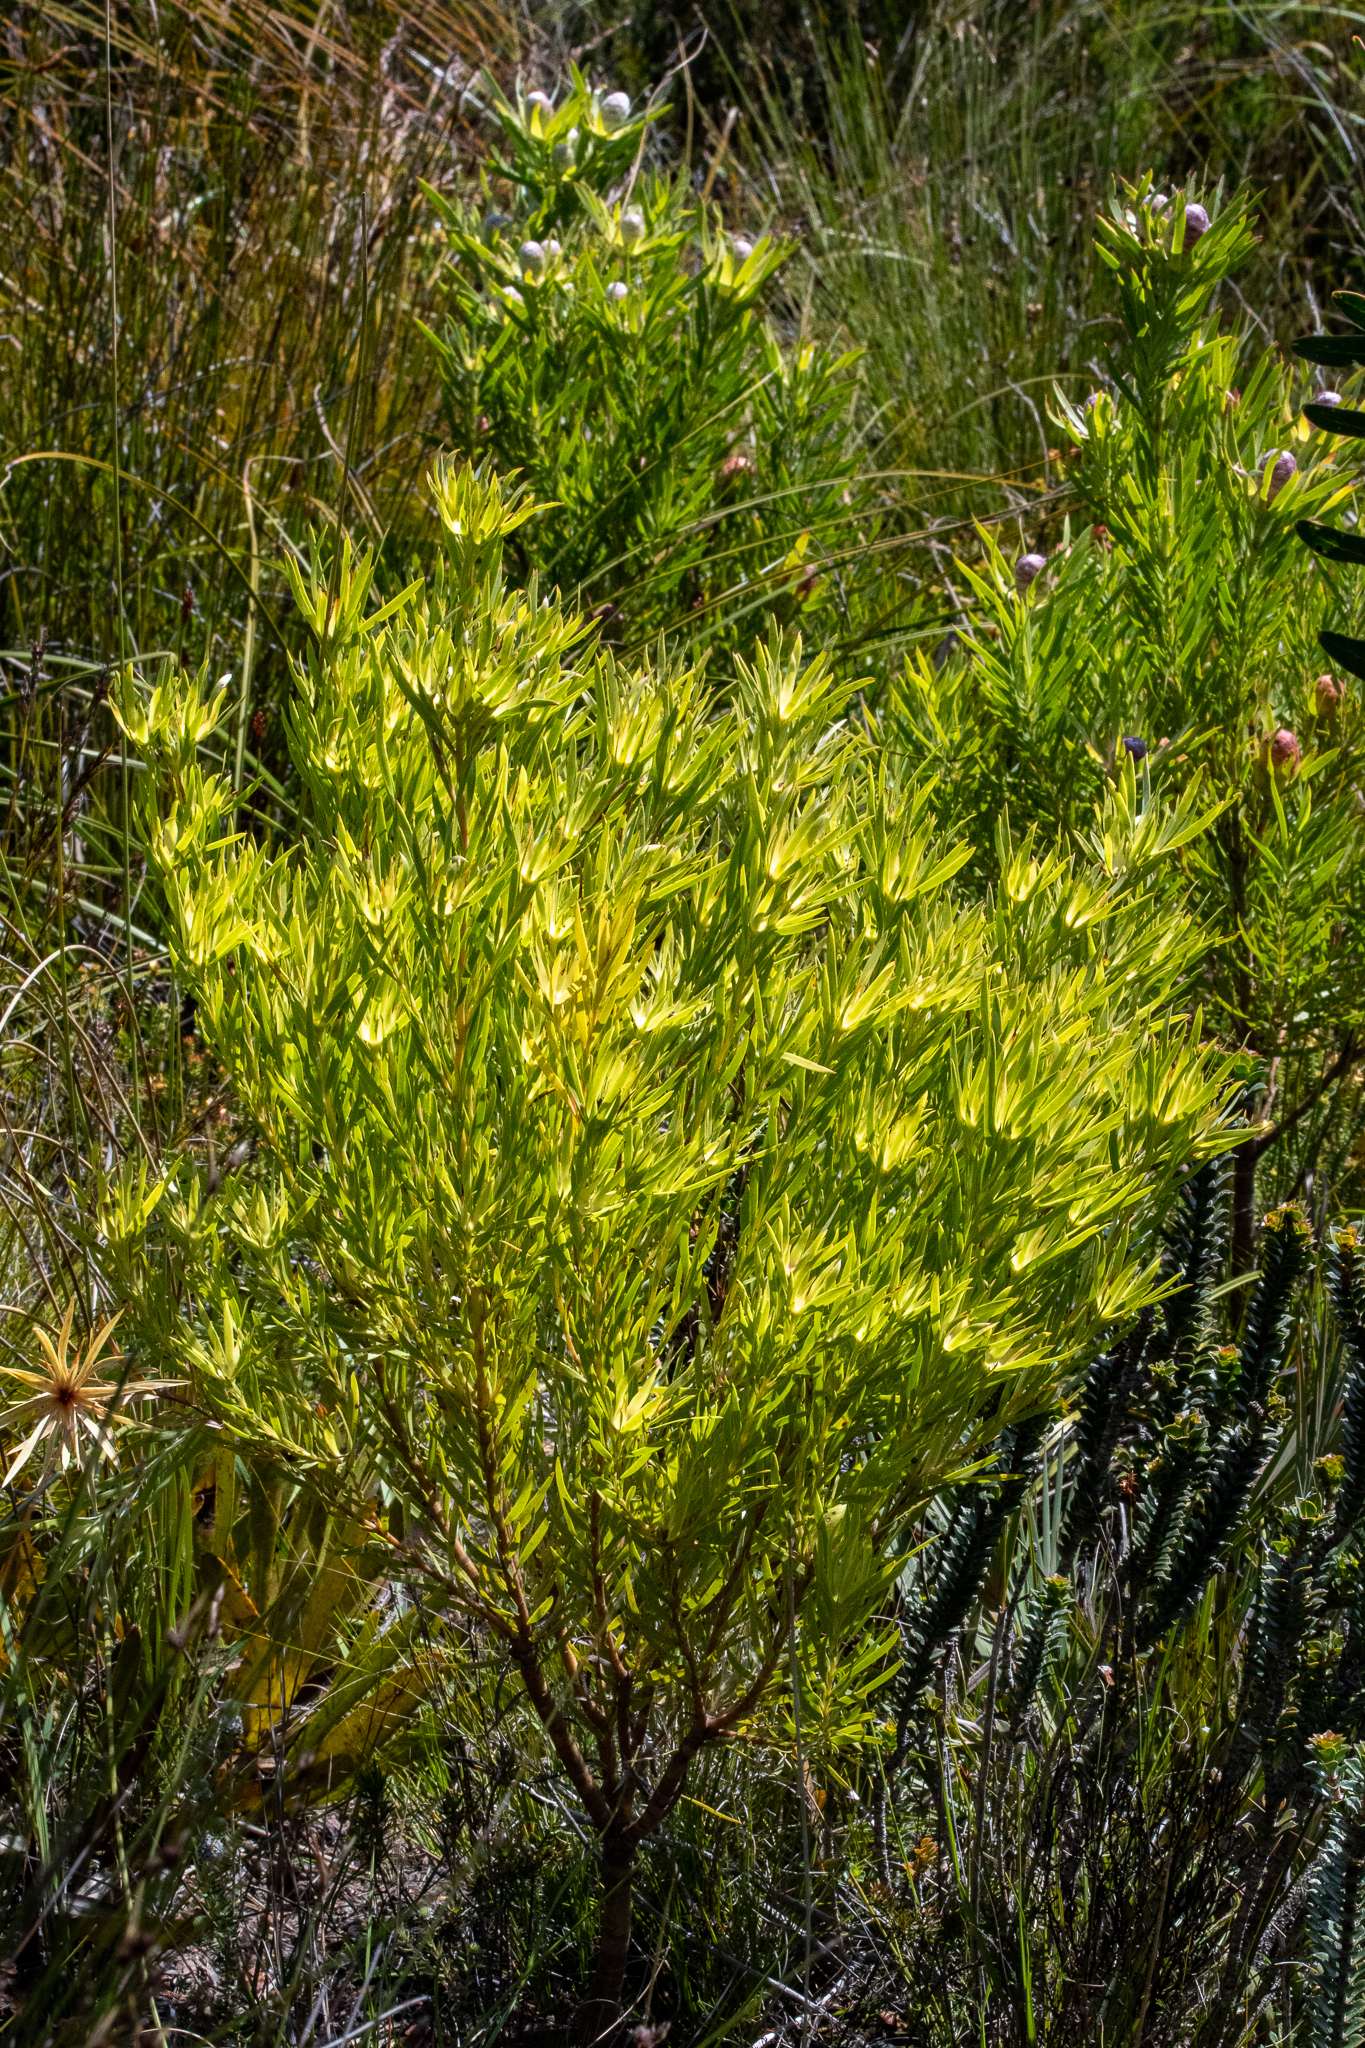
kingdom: Plantae
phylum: Tracheophyta
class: Magnoliopsida
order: Proteales
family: Proteaceae
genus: Leucadendron
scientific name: Leucadendron xanthoconus
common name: Sickle-leaf conebush
